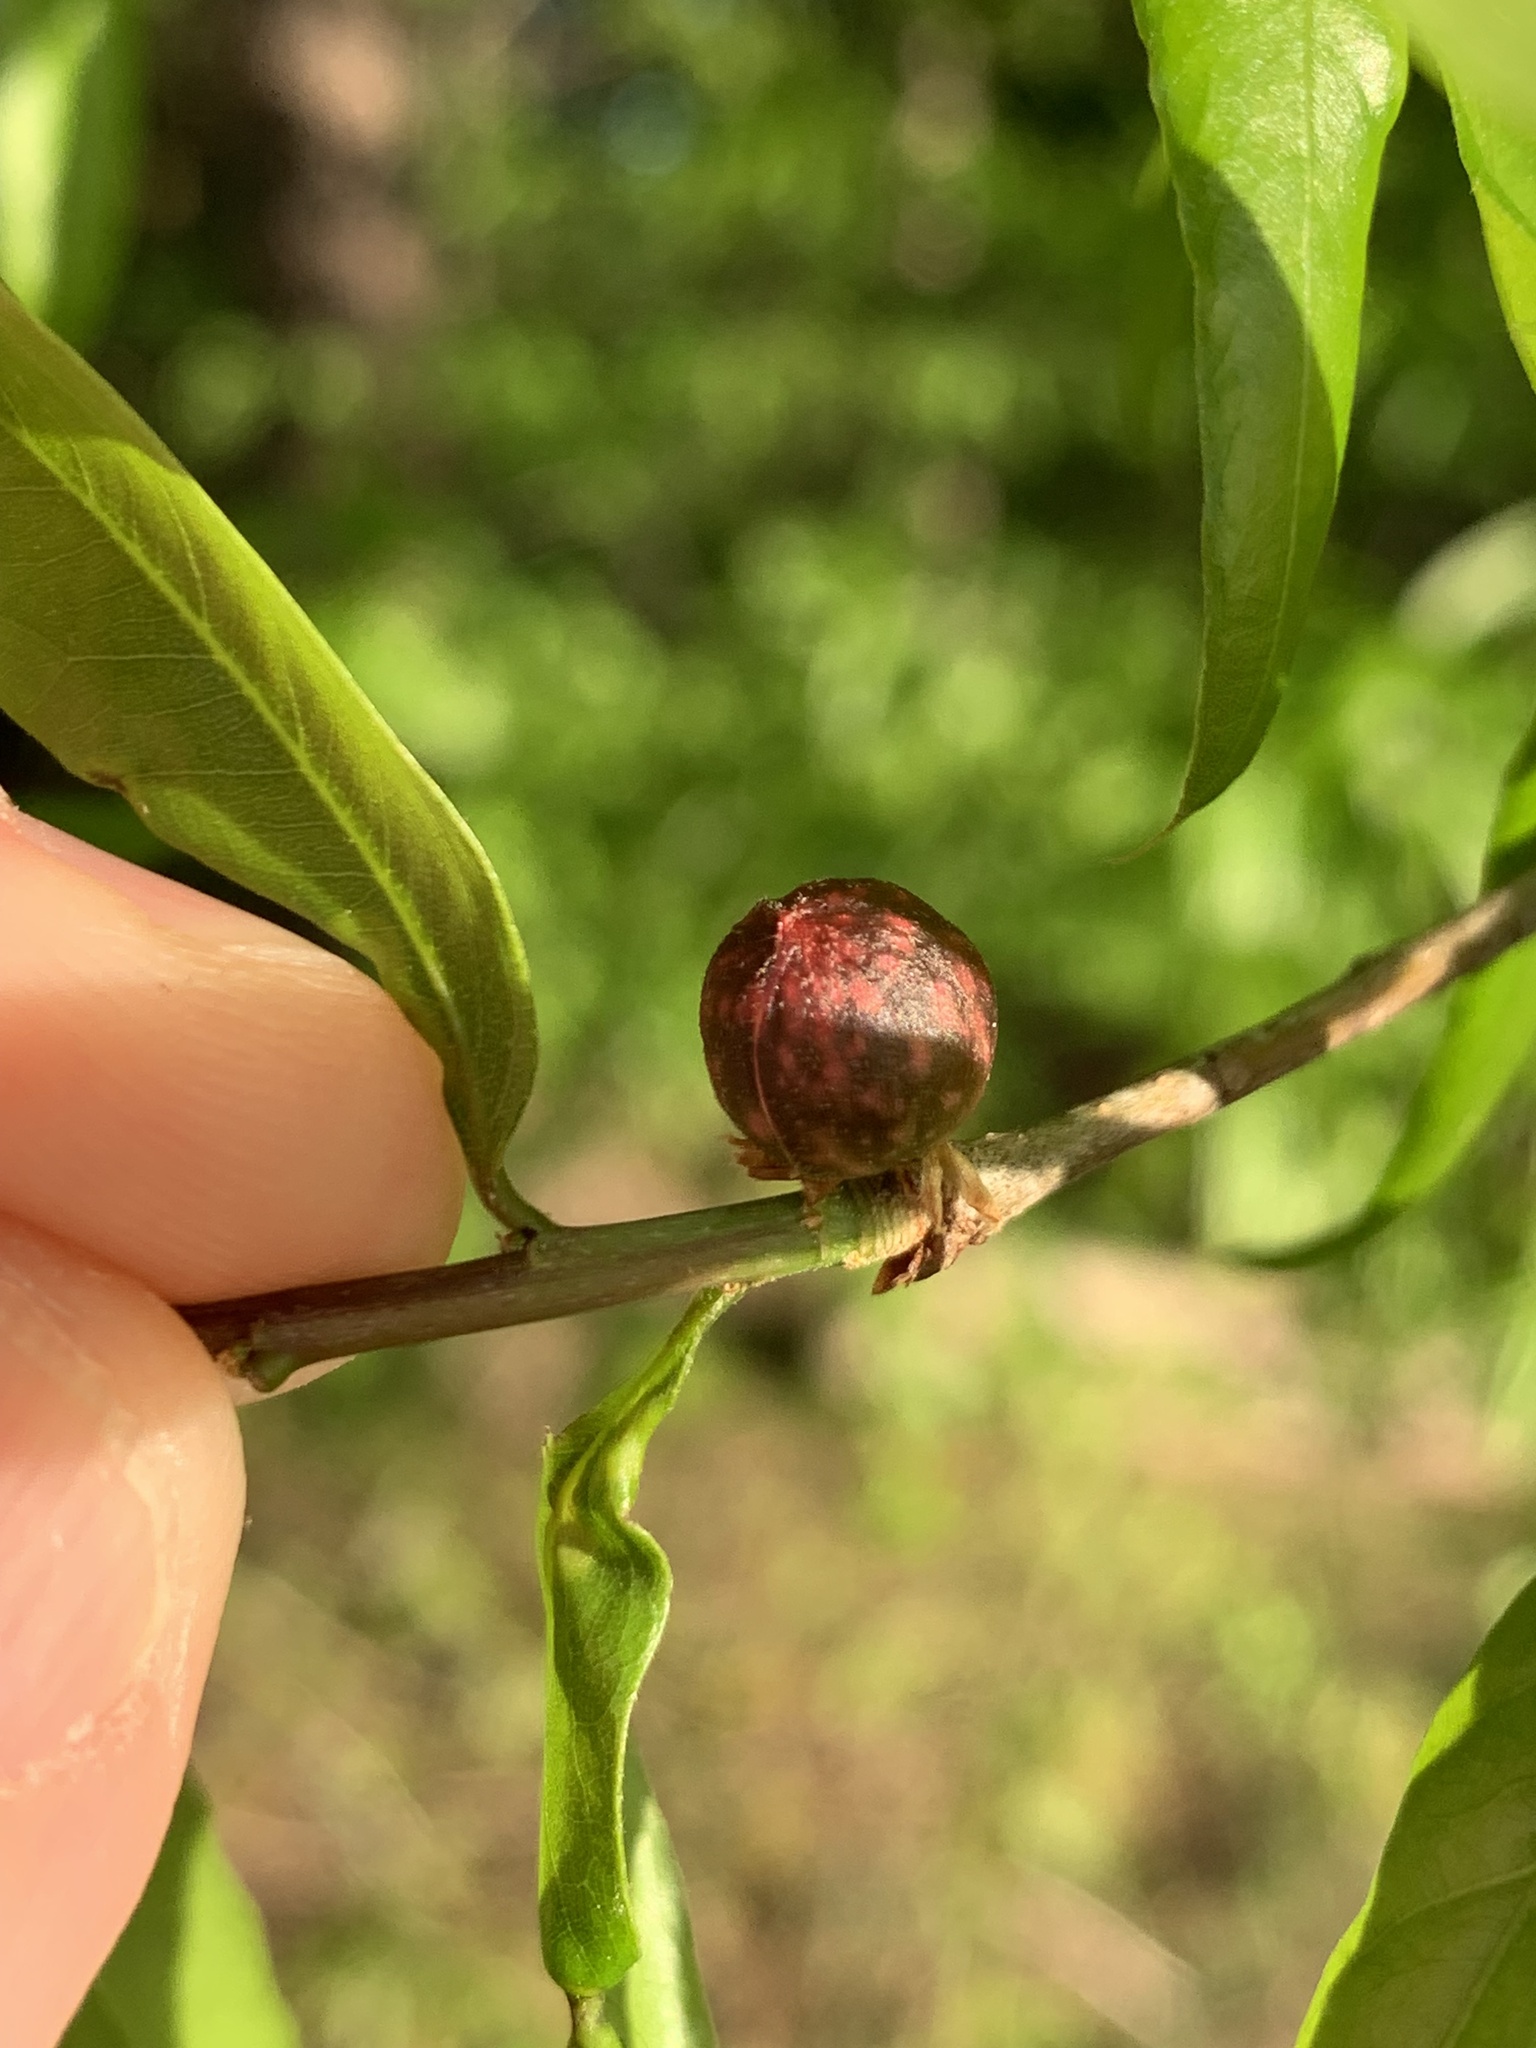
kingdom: Animalia
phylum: Arthropoda
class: Insecta
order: Hymenoptera
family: Cynipidae
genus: Dryocosmus
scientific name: Dryocosmus
